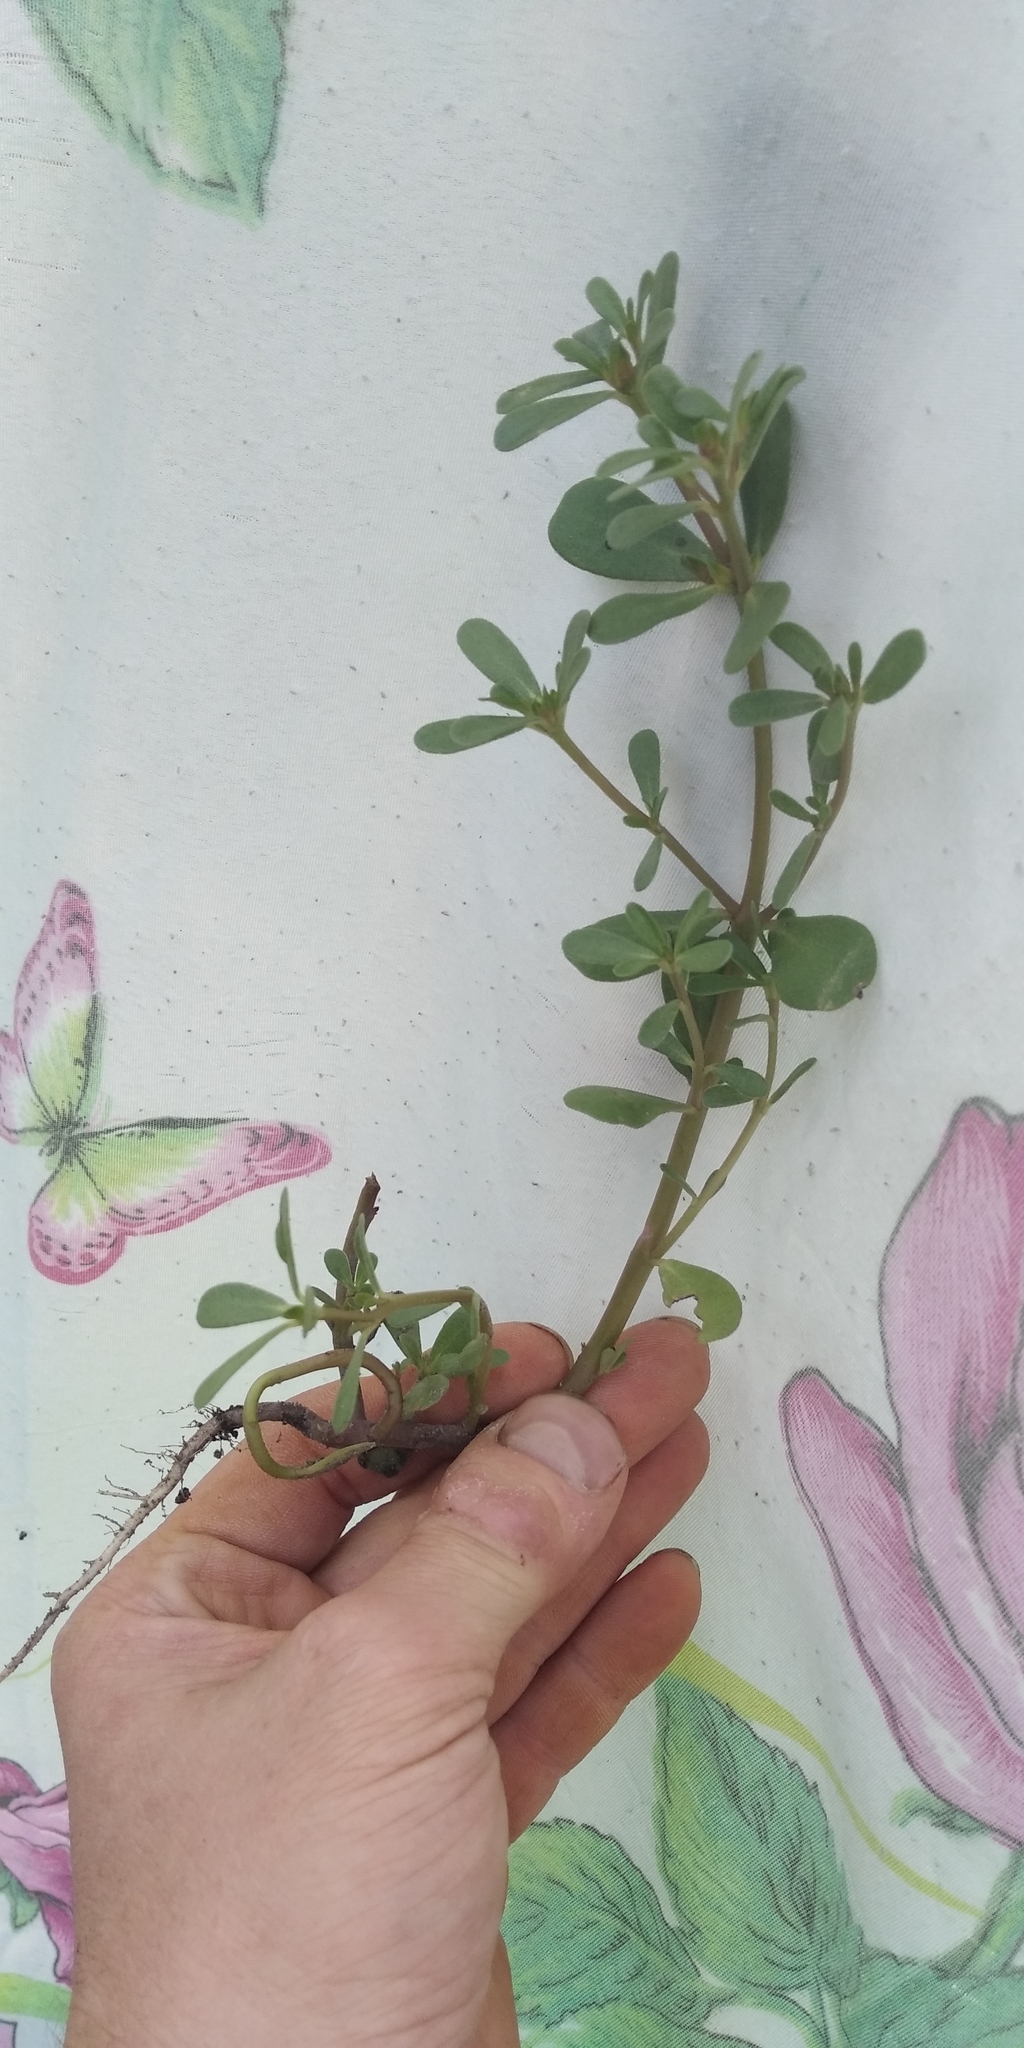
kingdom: Plantae
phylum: Tracheophyta
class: Magnoliopsida
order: Caryophyllales
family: Portulacaceae
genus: Portulaca
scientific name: Portulaca oleracea
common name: Common purslane
